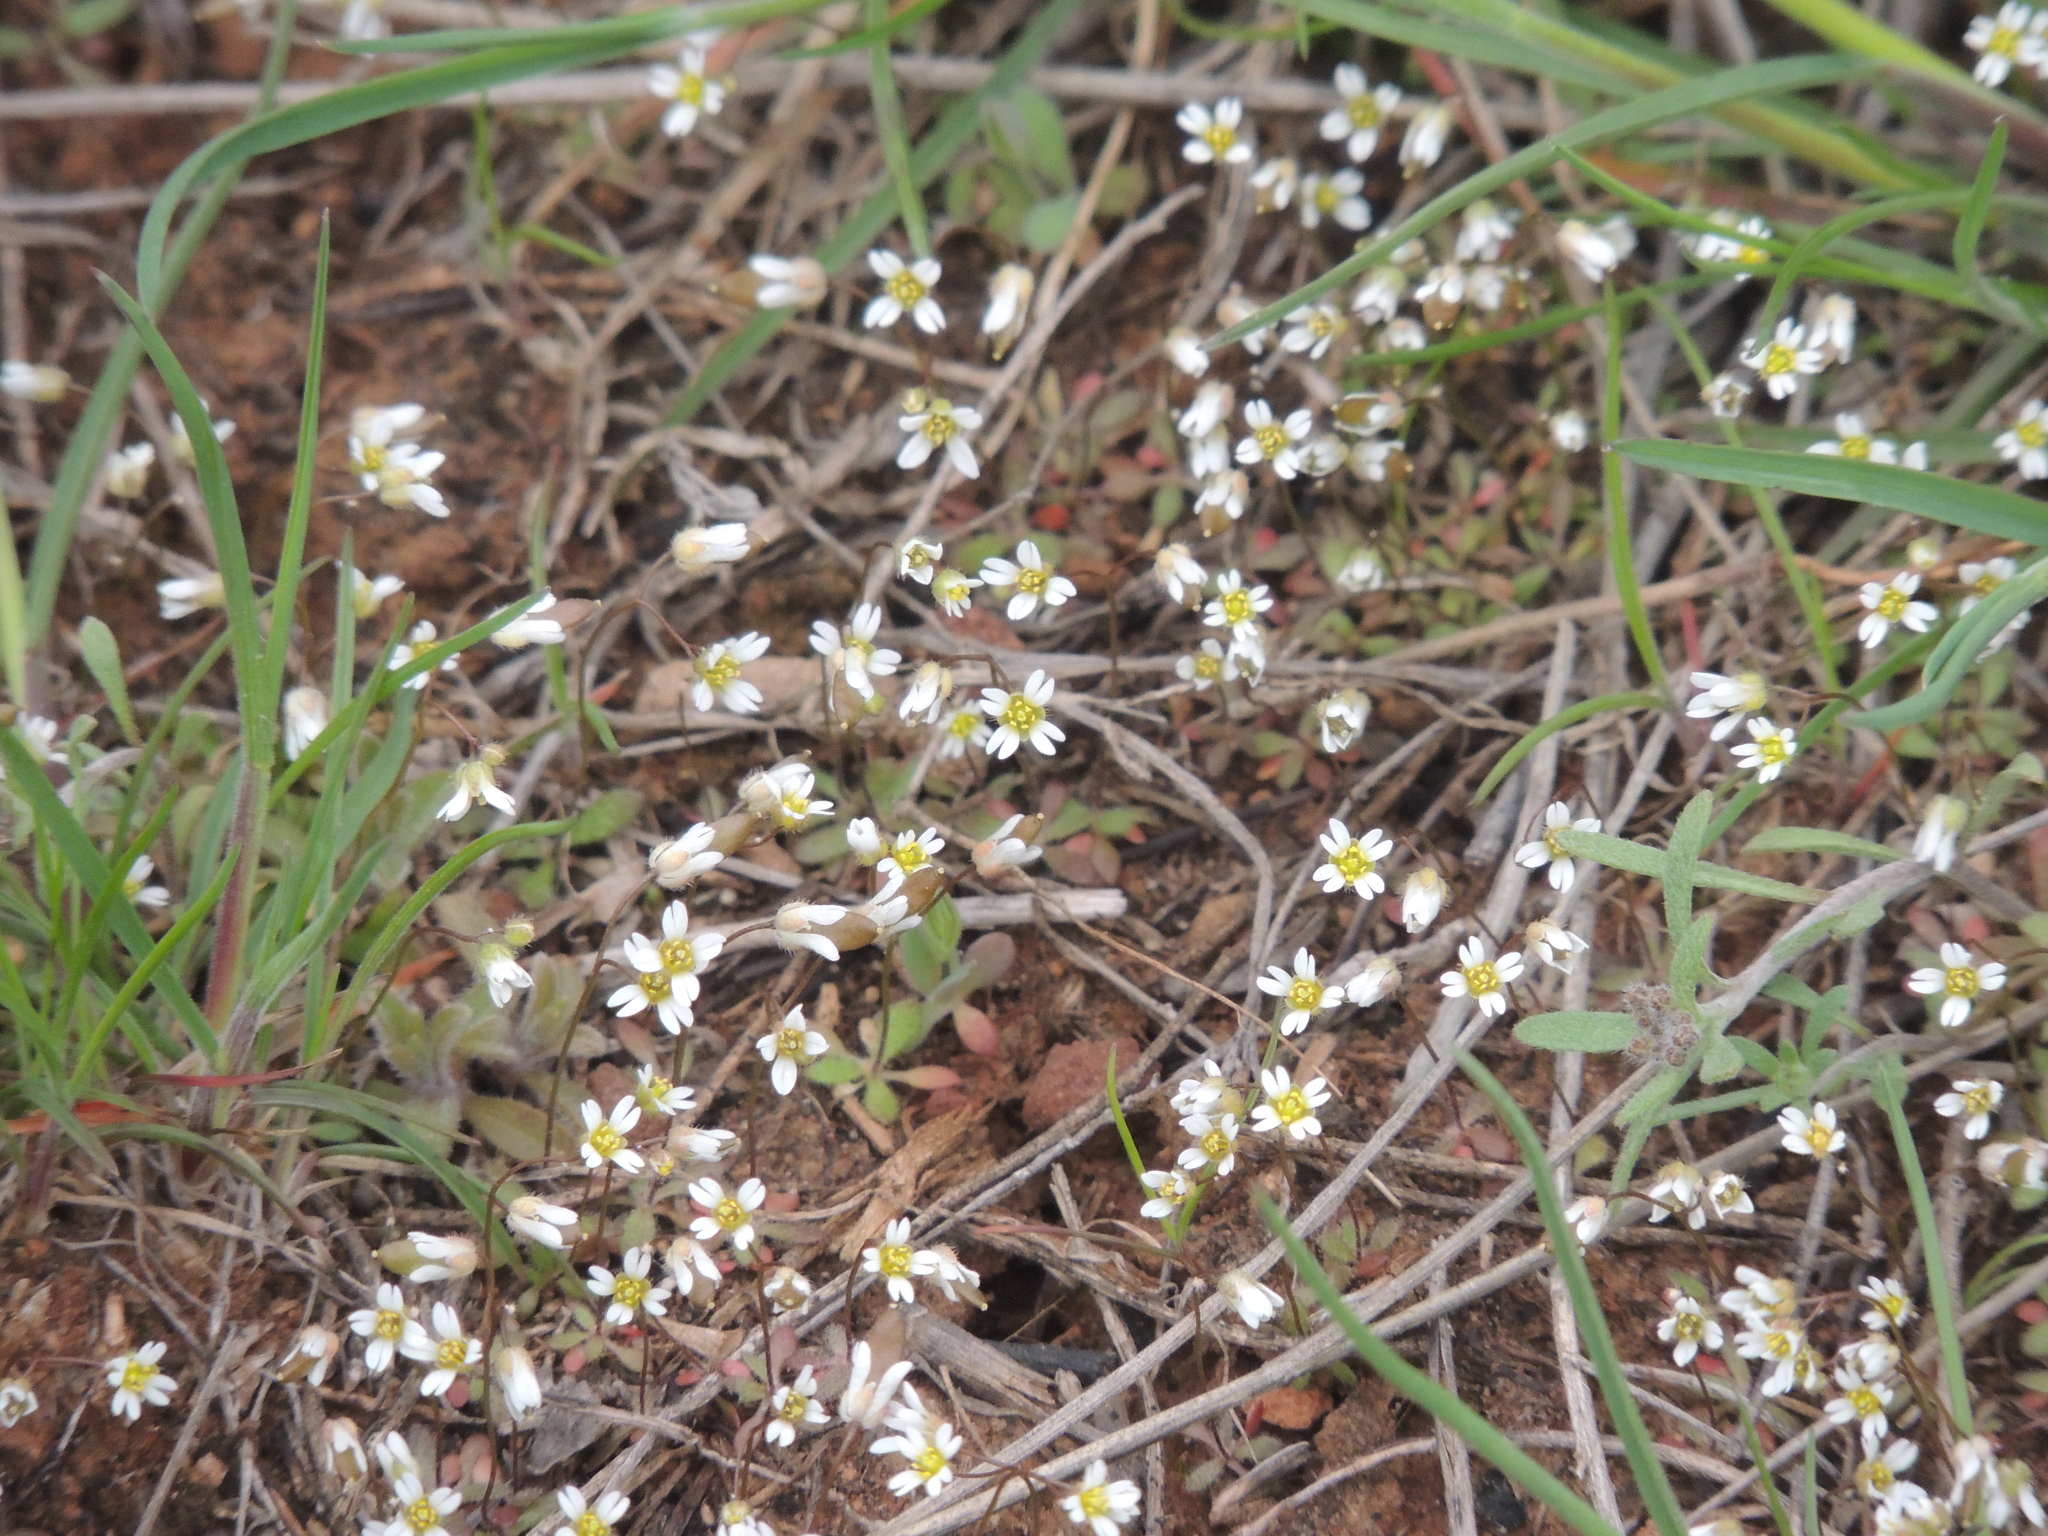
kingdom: Plantae
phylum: Tracheophyta
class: Magnoliopsida
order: Brassicales
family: Brassicaceae
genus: Draba
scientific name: Draba verna
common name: Spring draba
